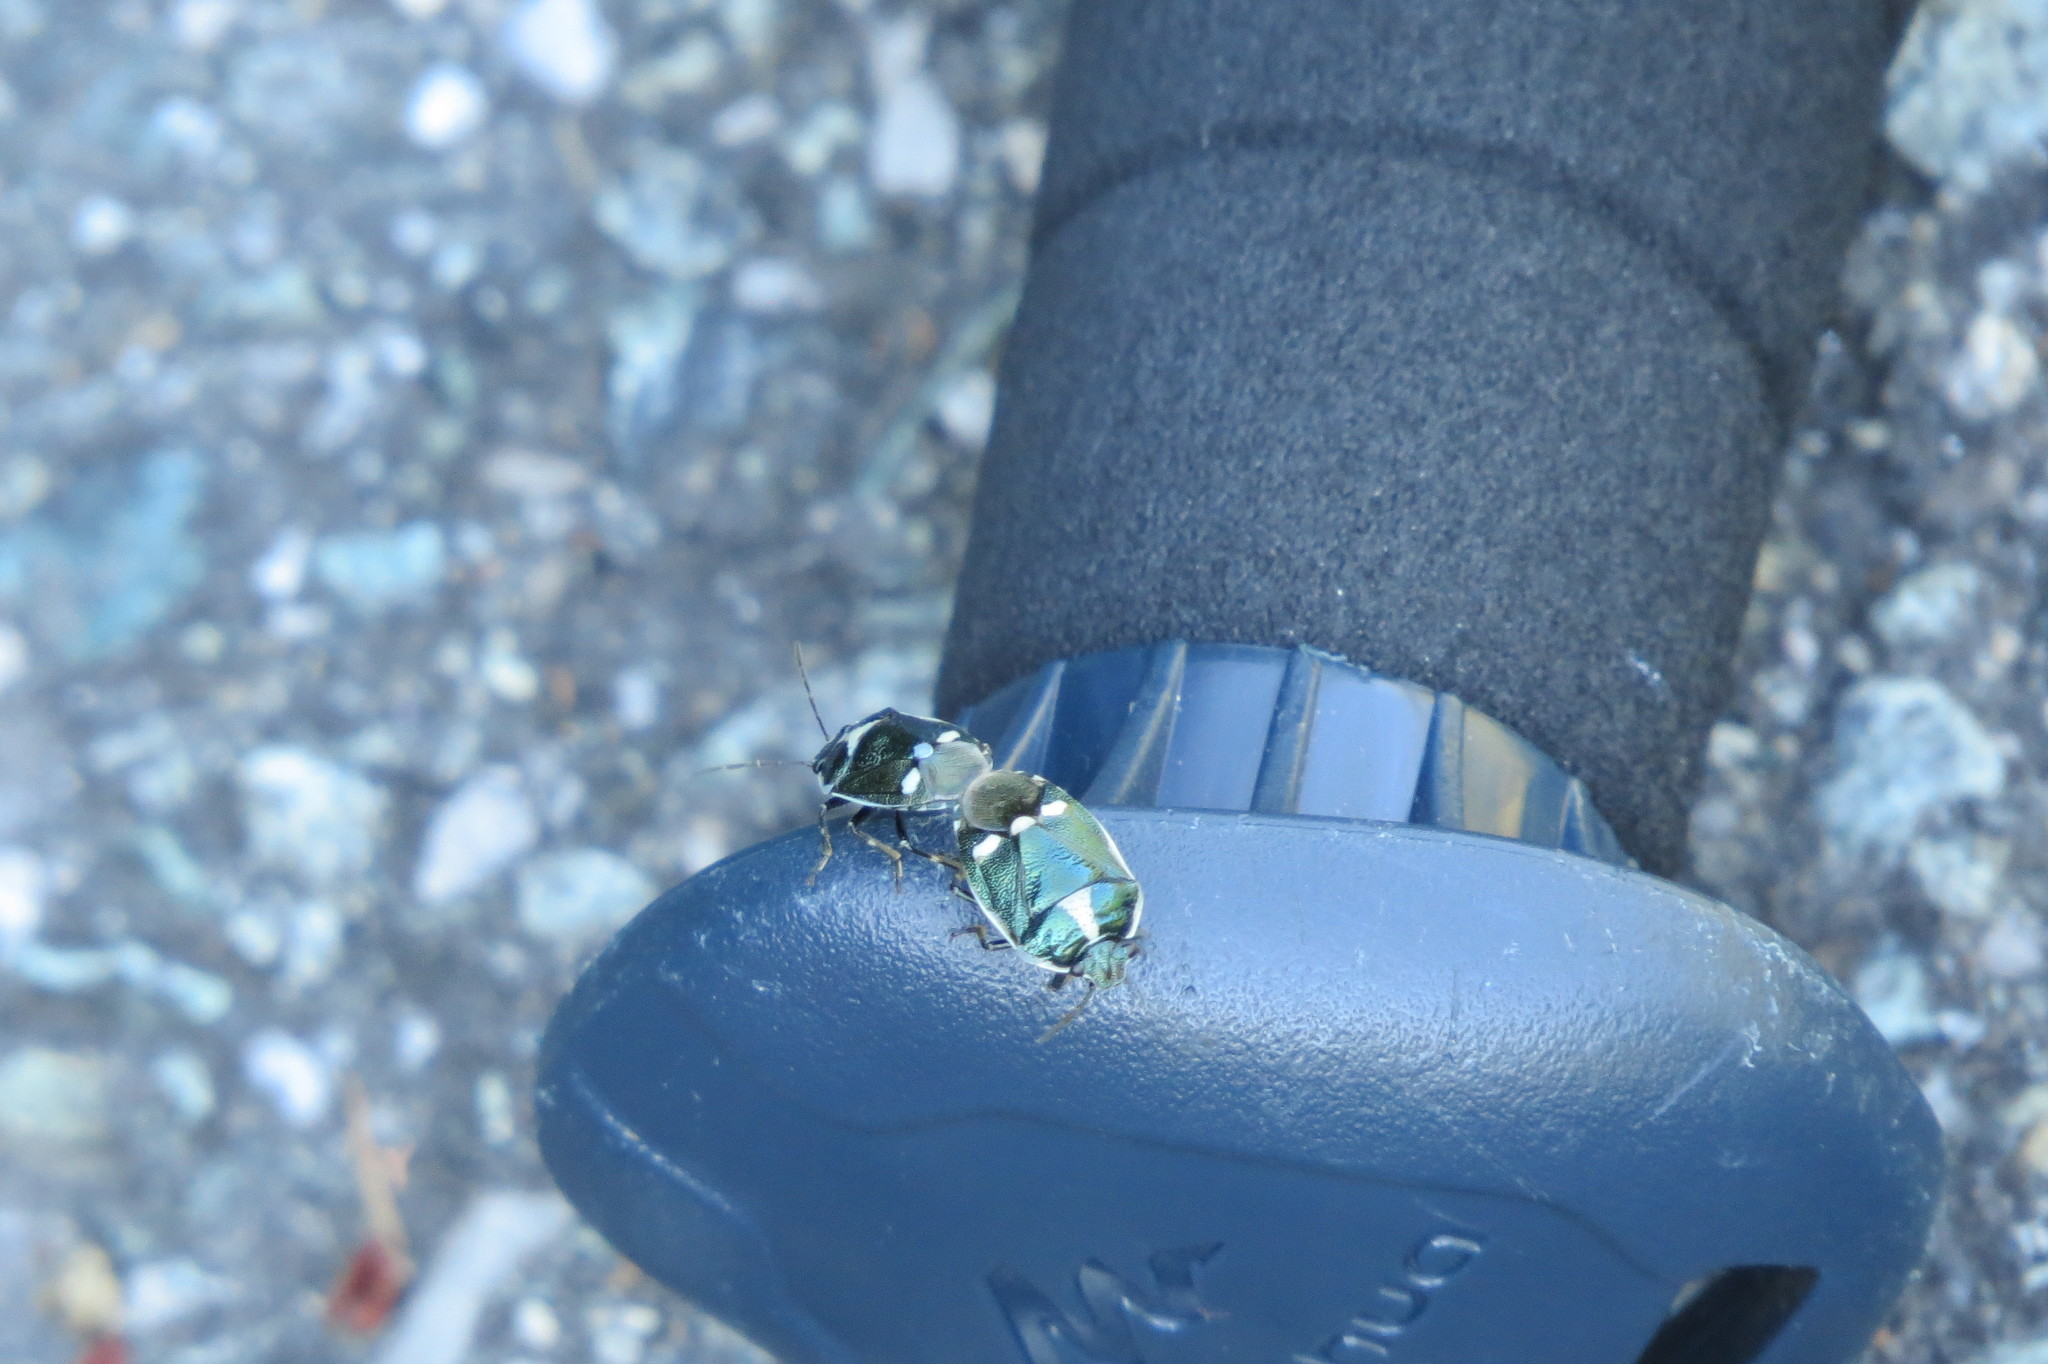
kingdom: Animalia
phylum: Arthropoda
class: Insecta
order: Hemiptera
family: Pentatomidae
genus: Eurydema
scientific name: Eurydema oleracea
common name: Cabbage bug
